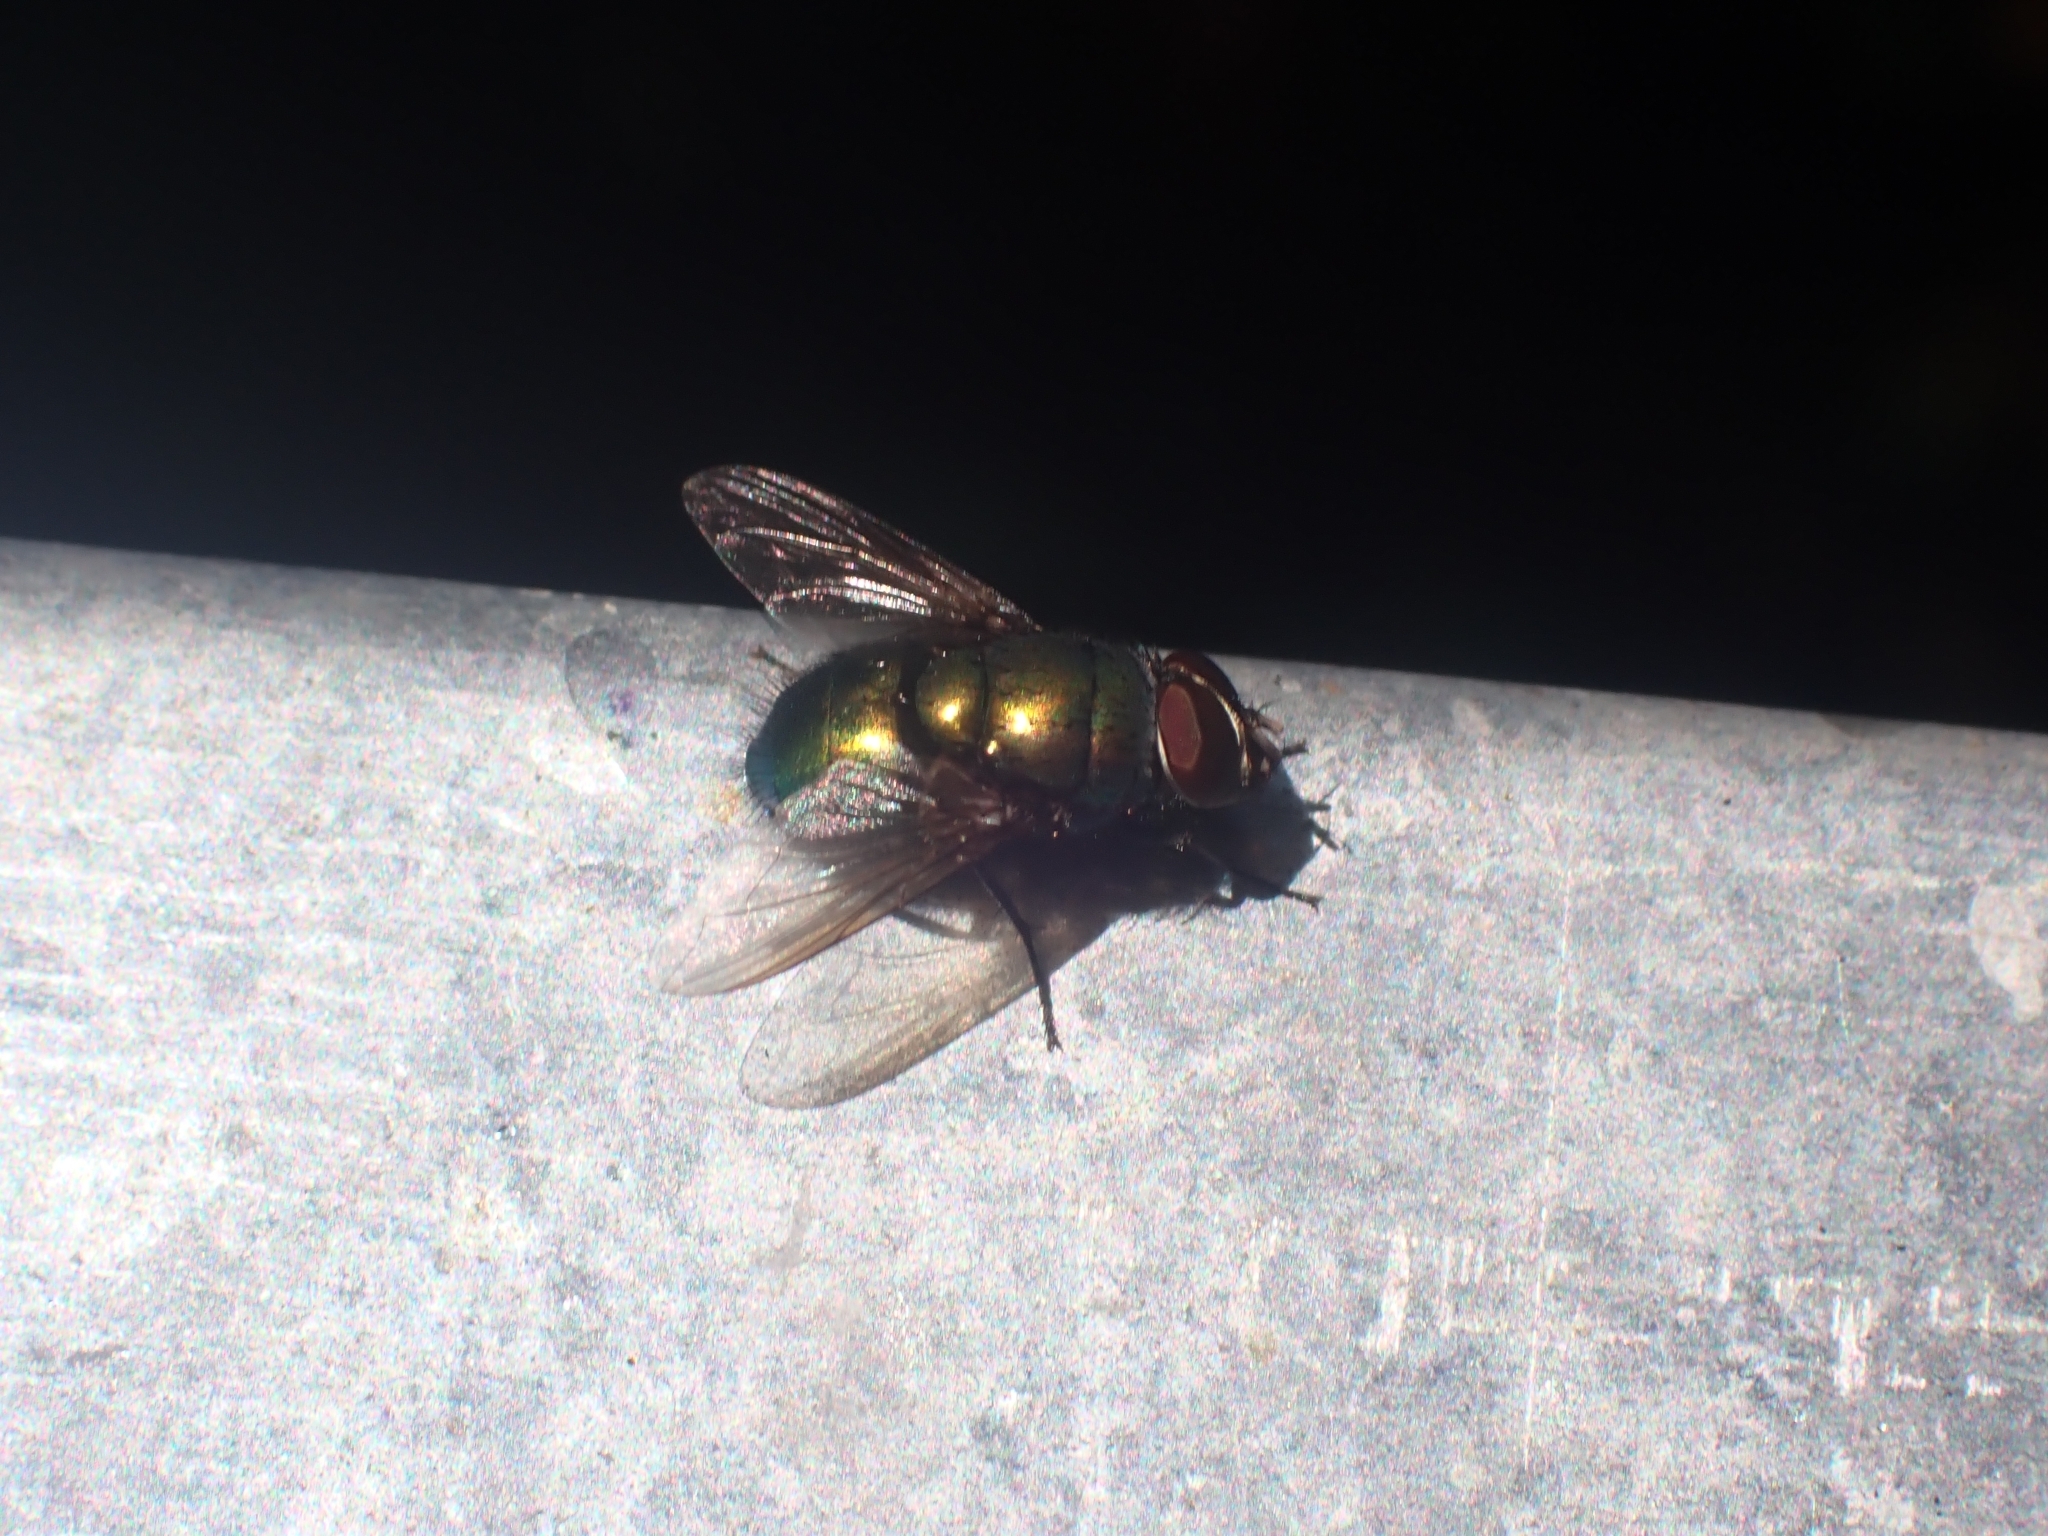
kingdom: Animalia
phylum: Arthropoda
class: Insecta
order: Diptera
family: Calliphoridae
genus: Lucilia
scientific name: Lucilia
